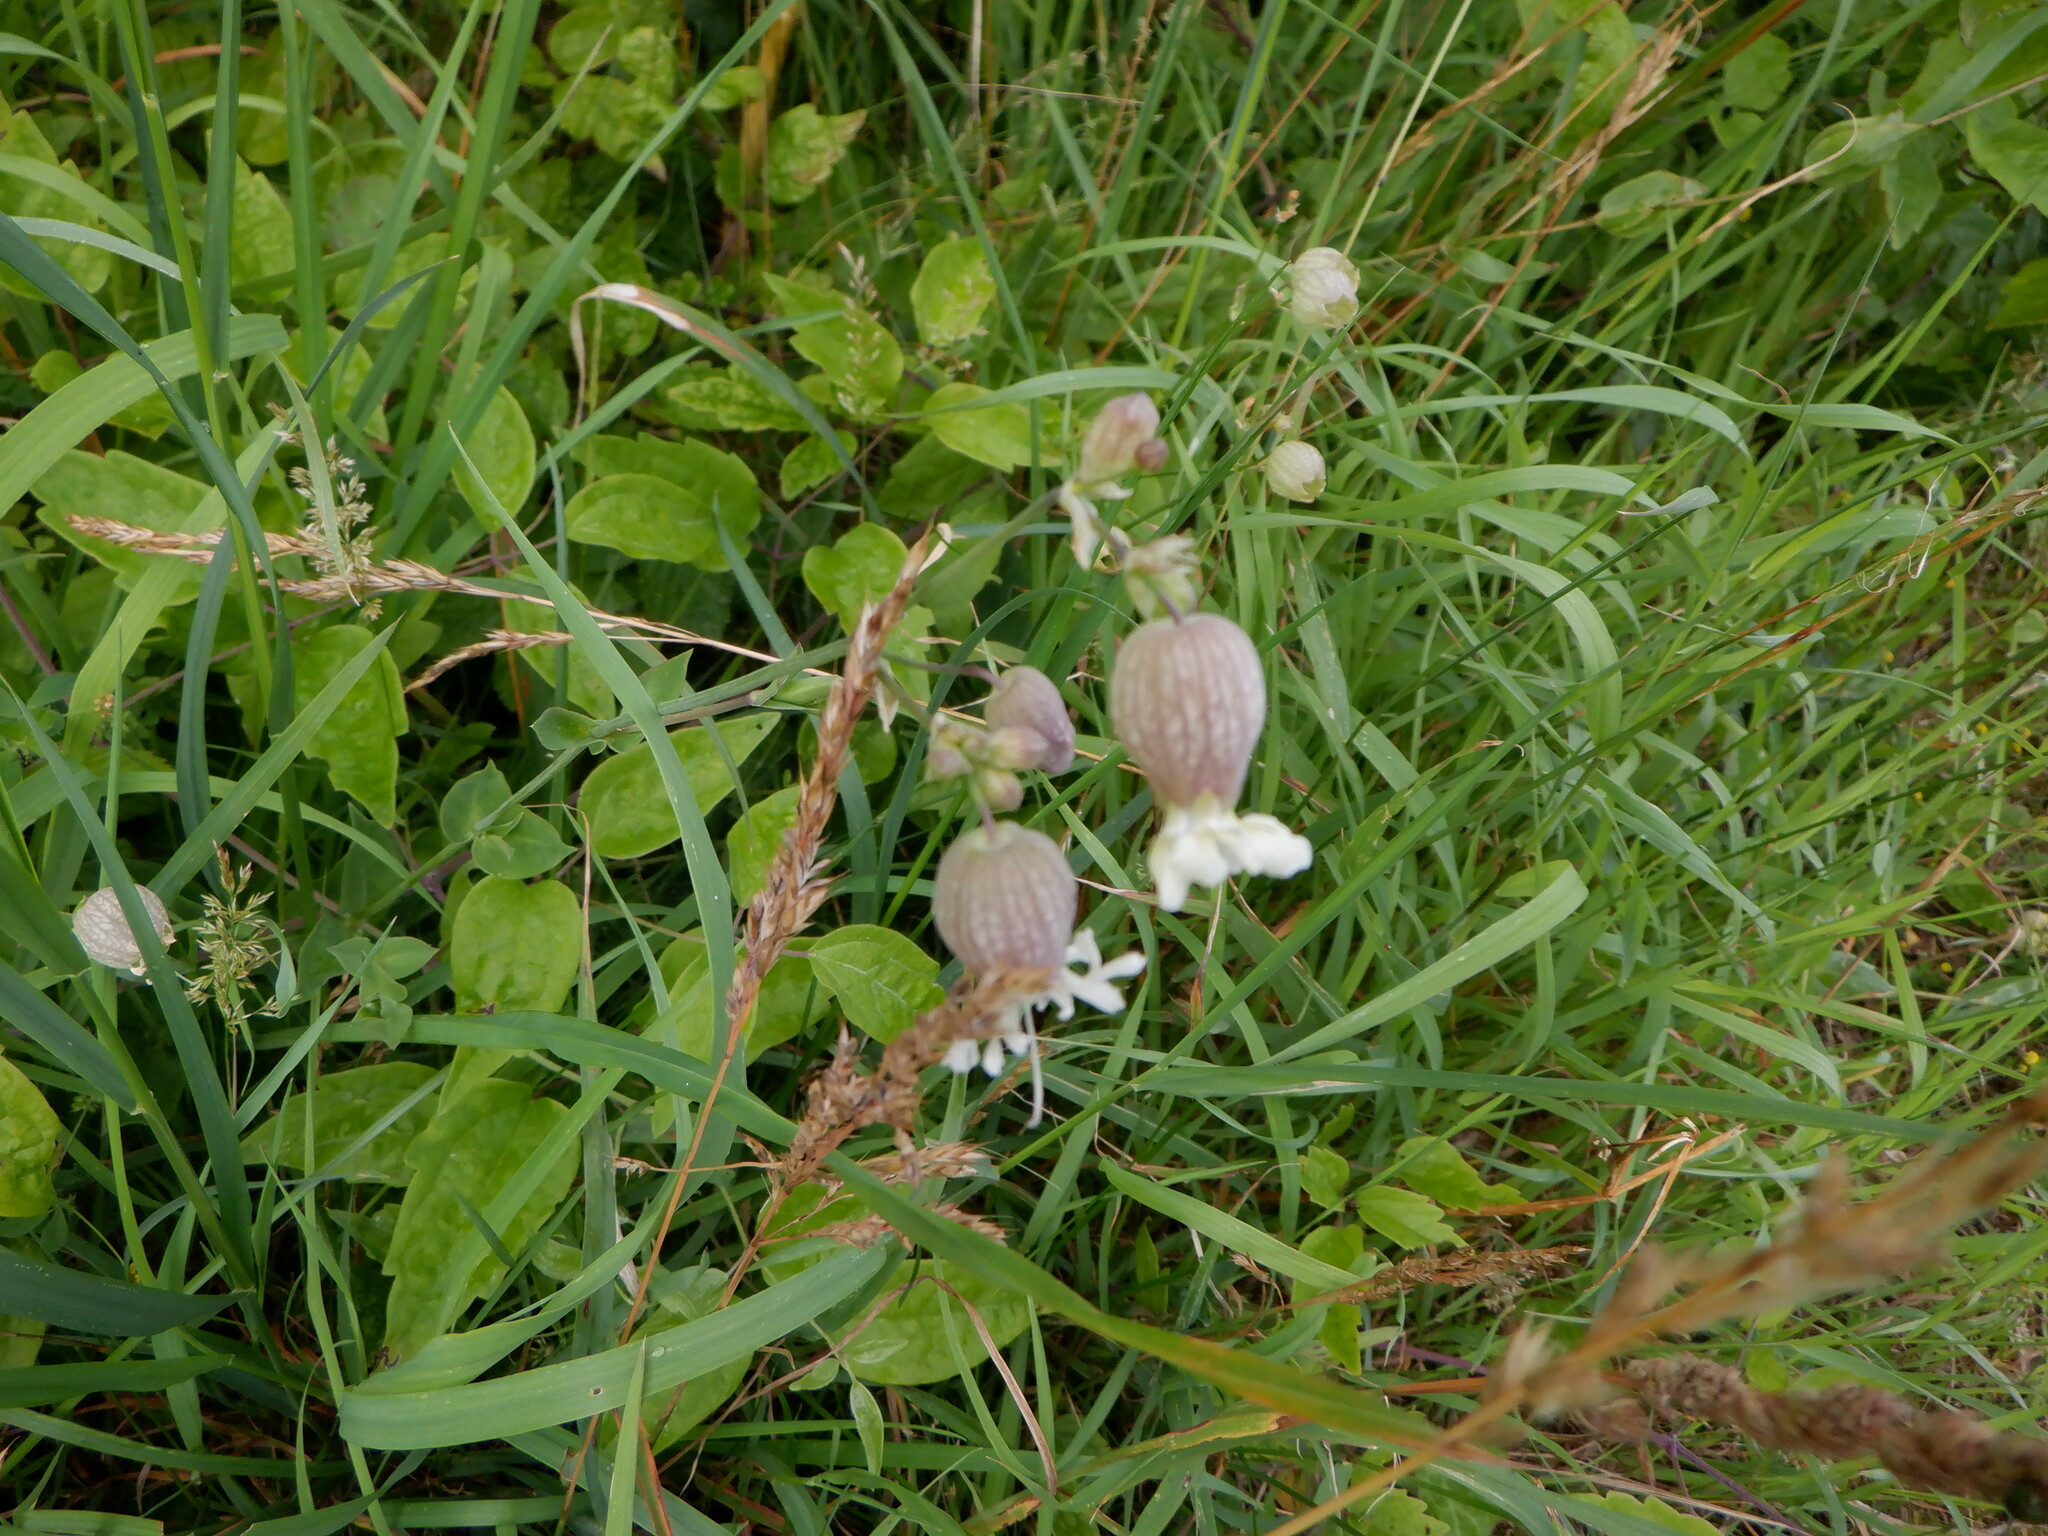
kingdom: Plantae
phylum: Tracheophyta
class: Magnoliopsida
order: Caryophyllales
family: Caryophyllaceae
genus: Silene
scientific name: Silene vulgaris
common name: Bladder campion
